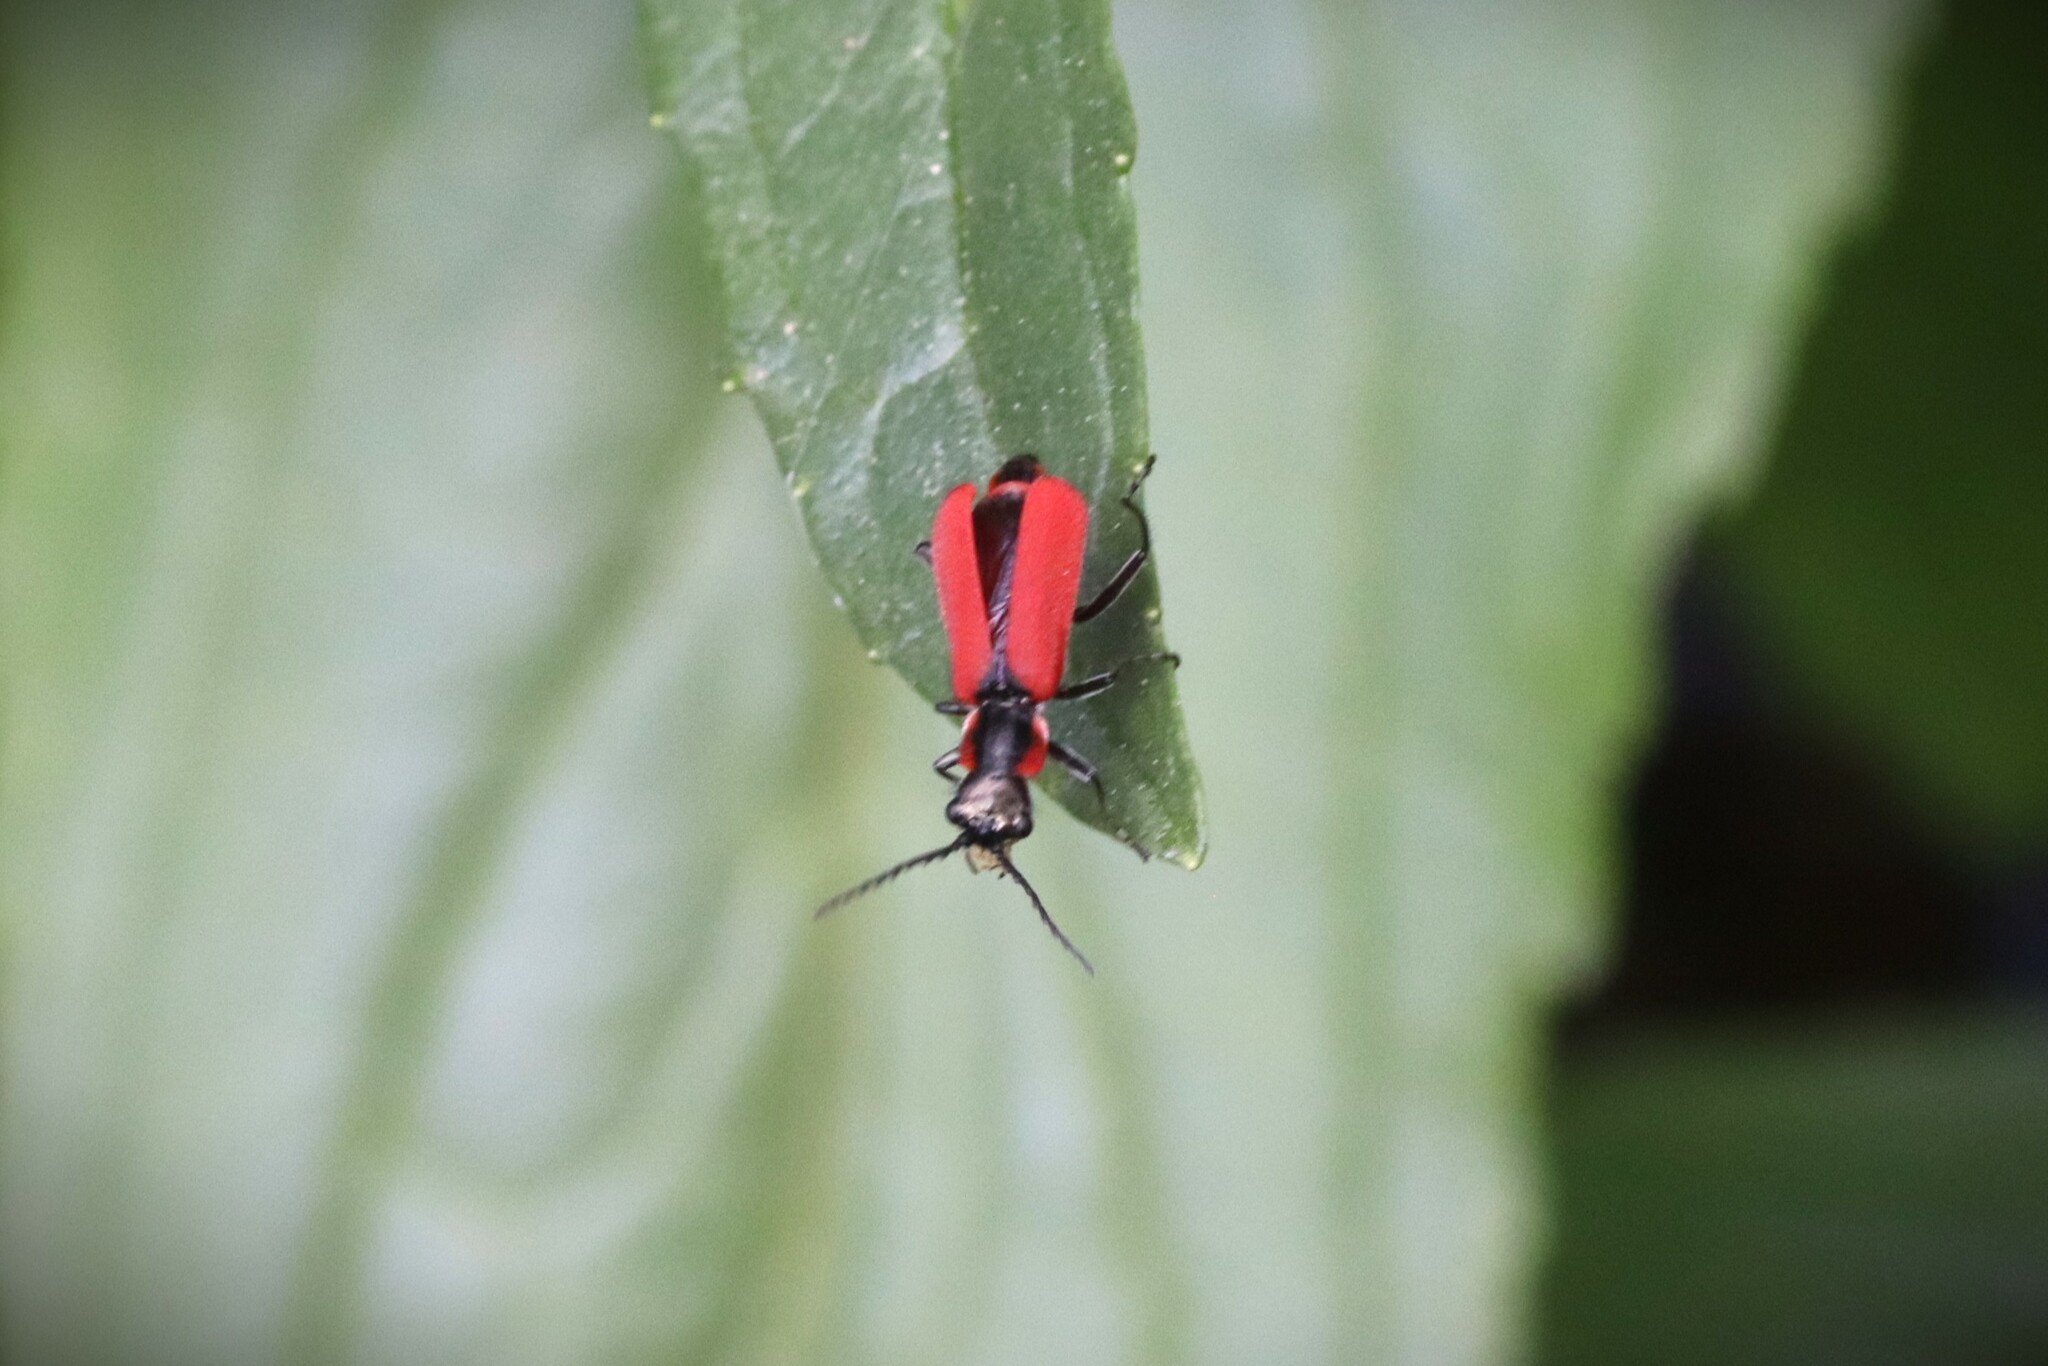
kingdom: Animalia
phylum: Arthropoda
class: Insecta
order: Coleoptera
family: Melyridae
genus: Malachius
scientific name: Malachius coccineus
